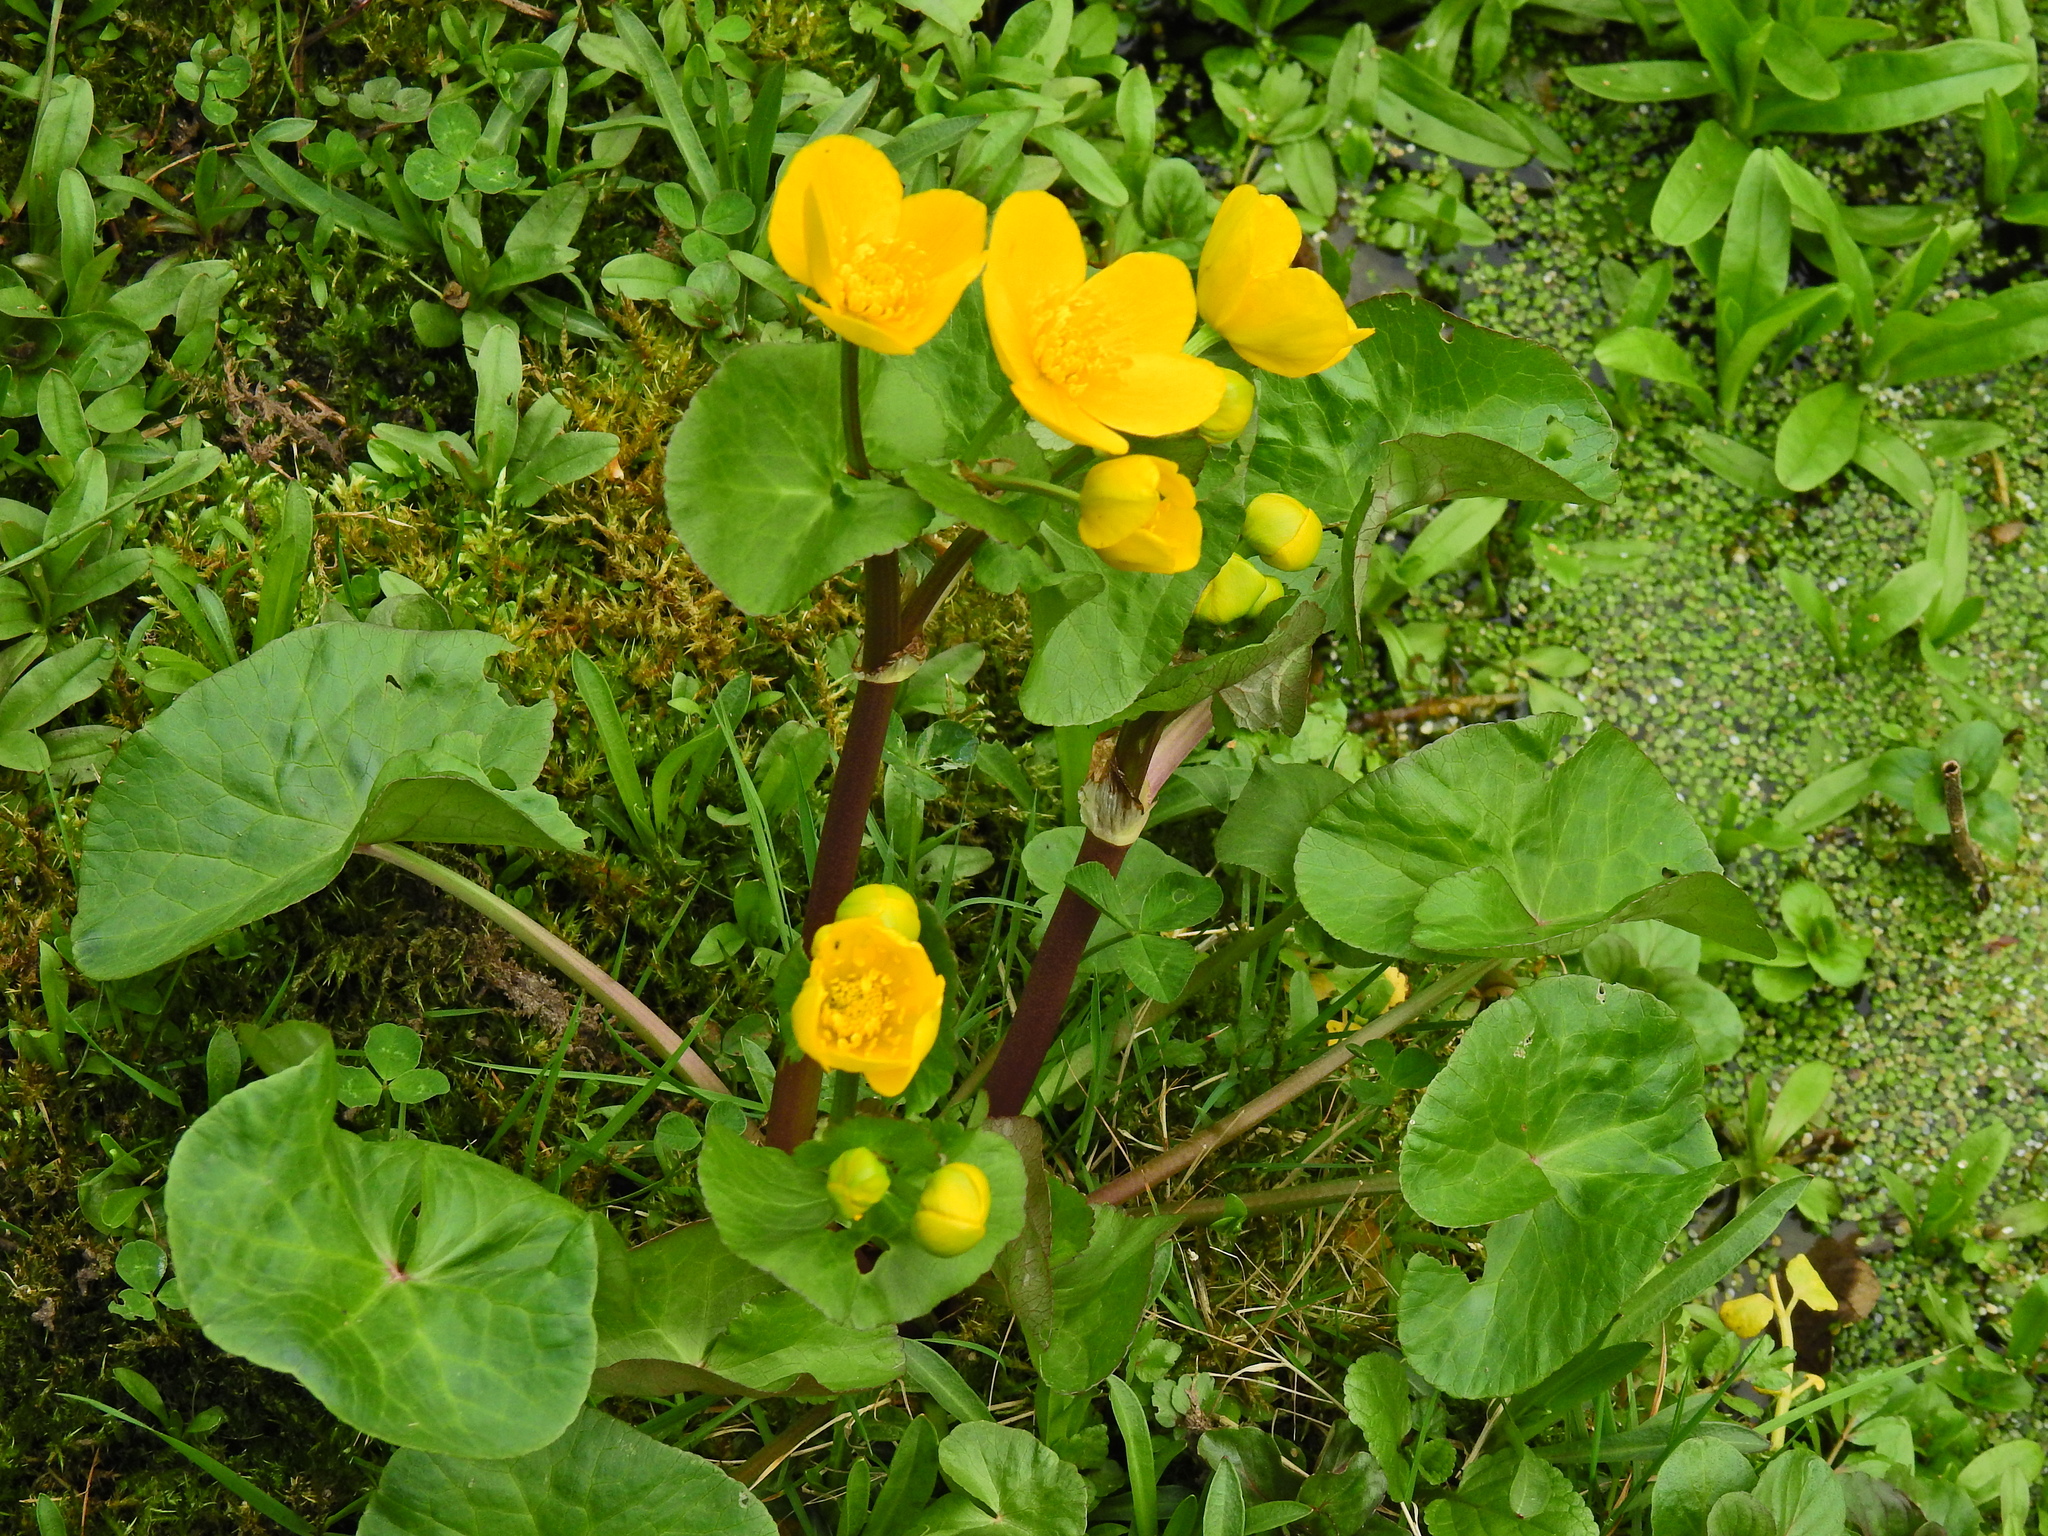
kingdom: Plantae
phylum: Tracheophyta
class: Magnoliopsida
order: Ranunculales
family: Ranunculaceae
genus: Caltha
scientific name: Caltha palustris
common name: Marsh marigold
